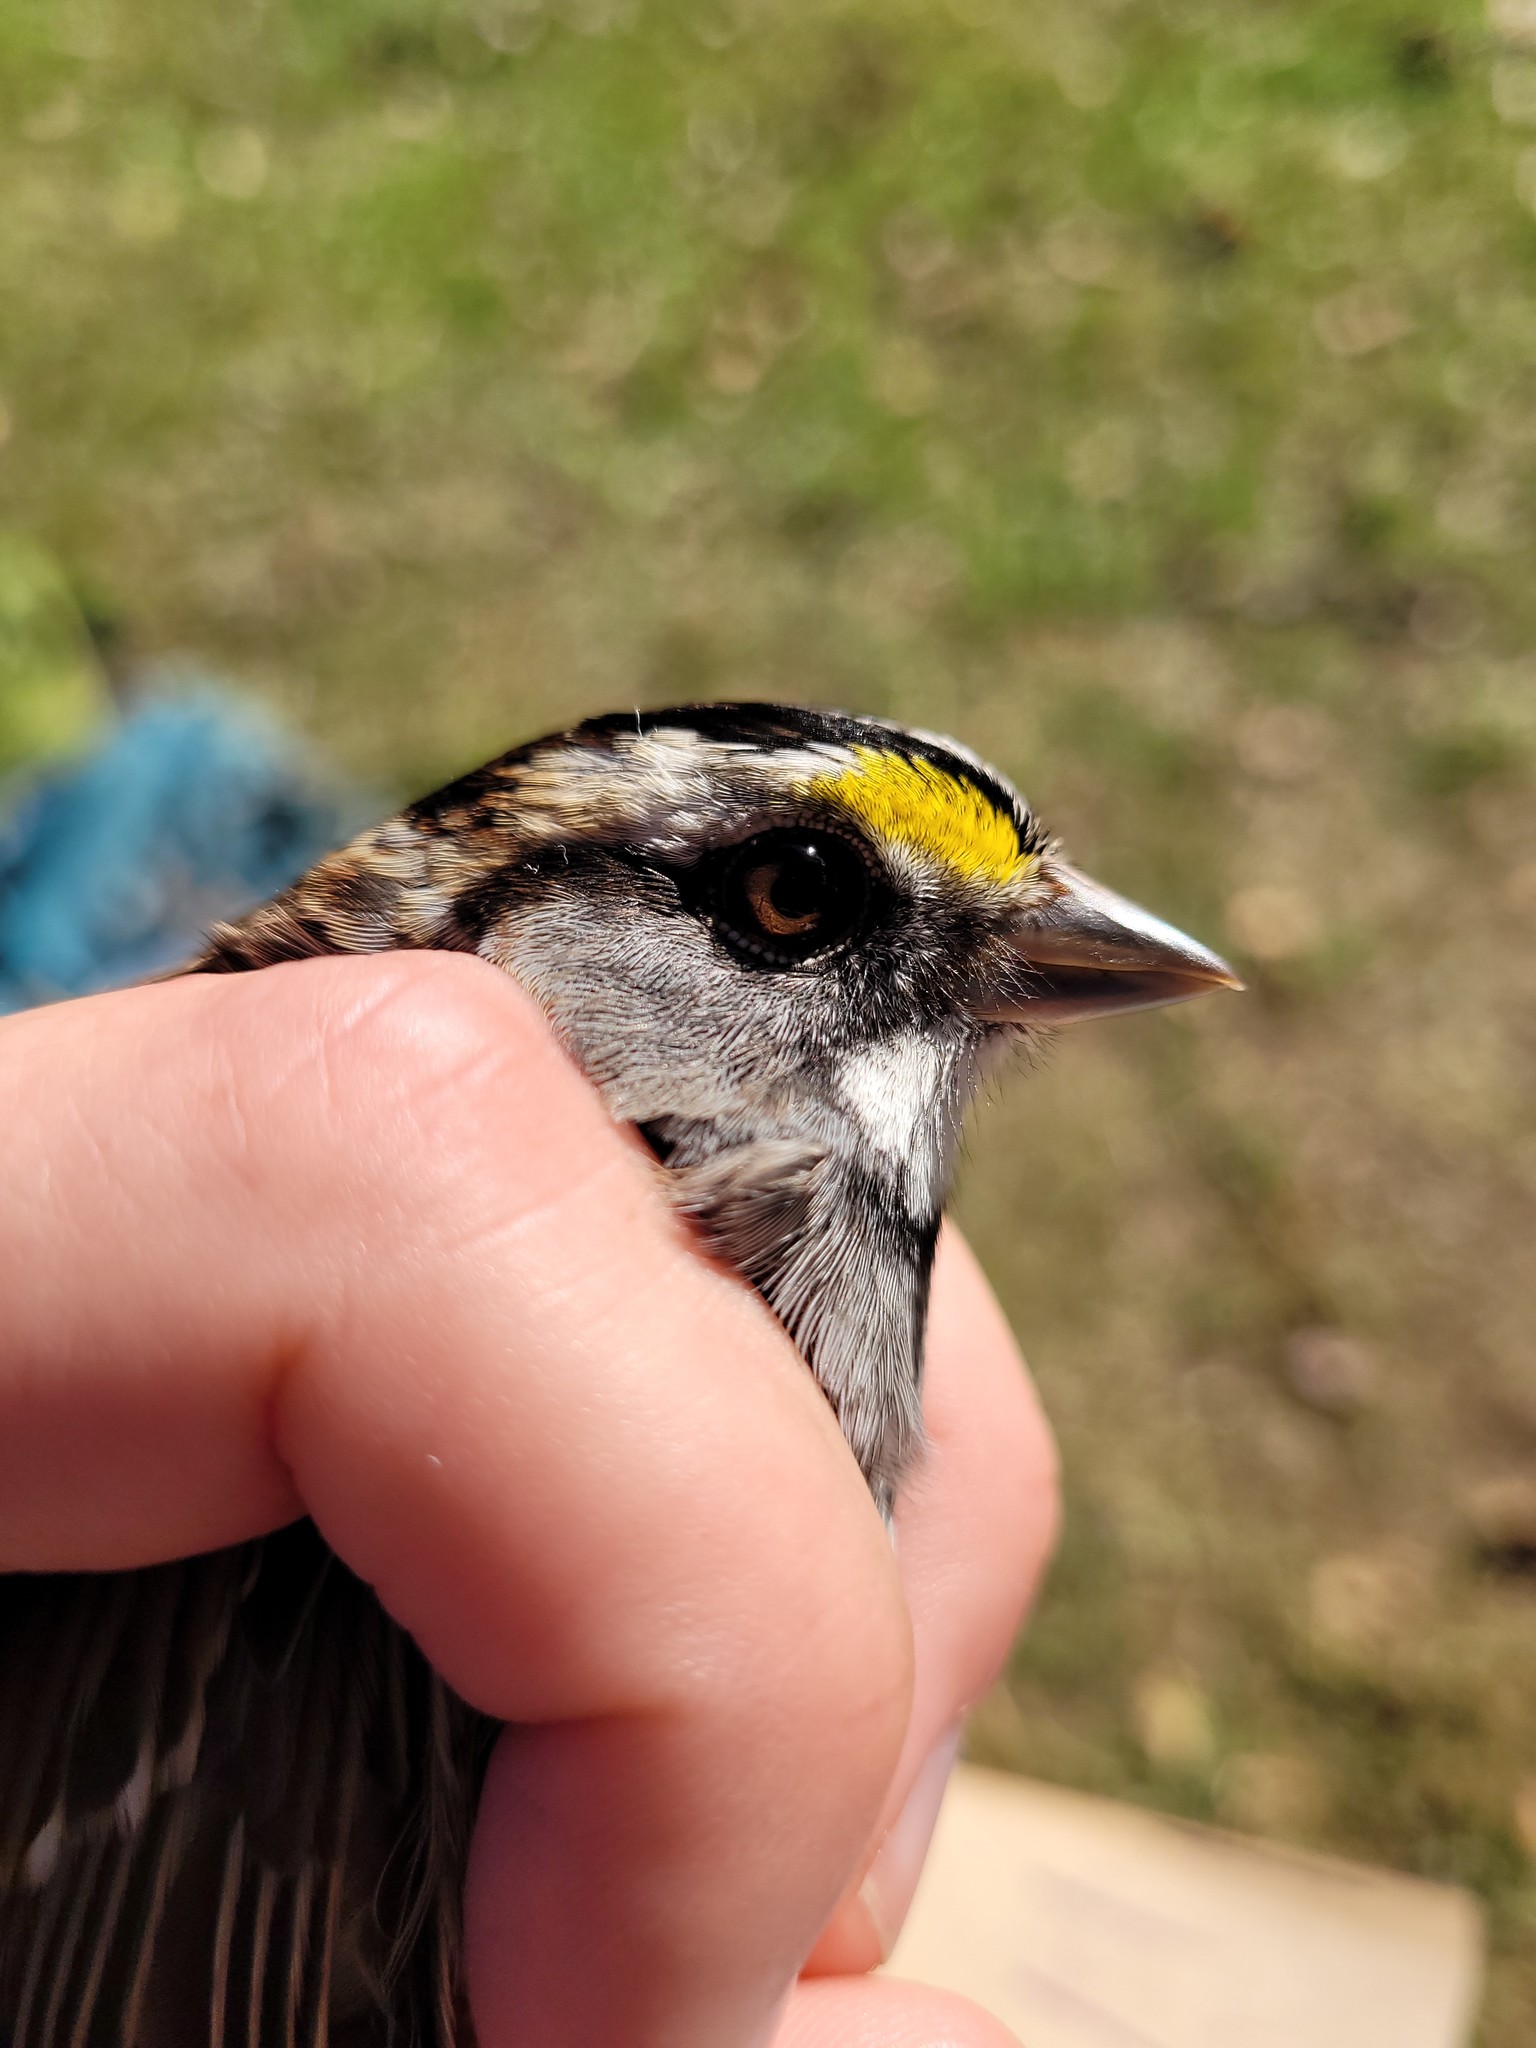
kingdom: Animalia
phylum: Chordata
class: Aves
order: Passeriformes
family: Passerellidae
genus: Zonotrichia
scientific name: Zonotrichia albicollis
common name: White-throated sparrow
